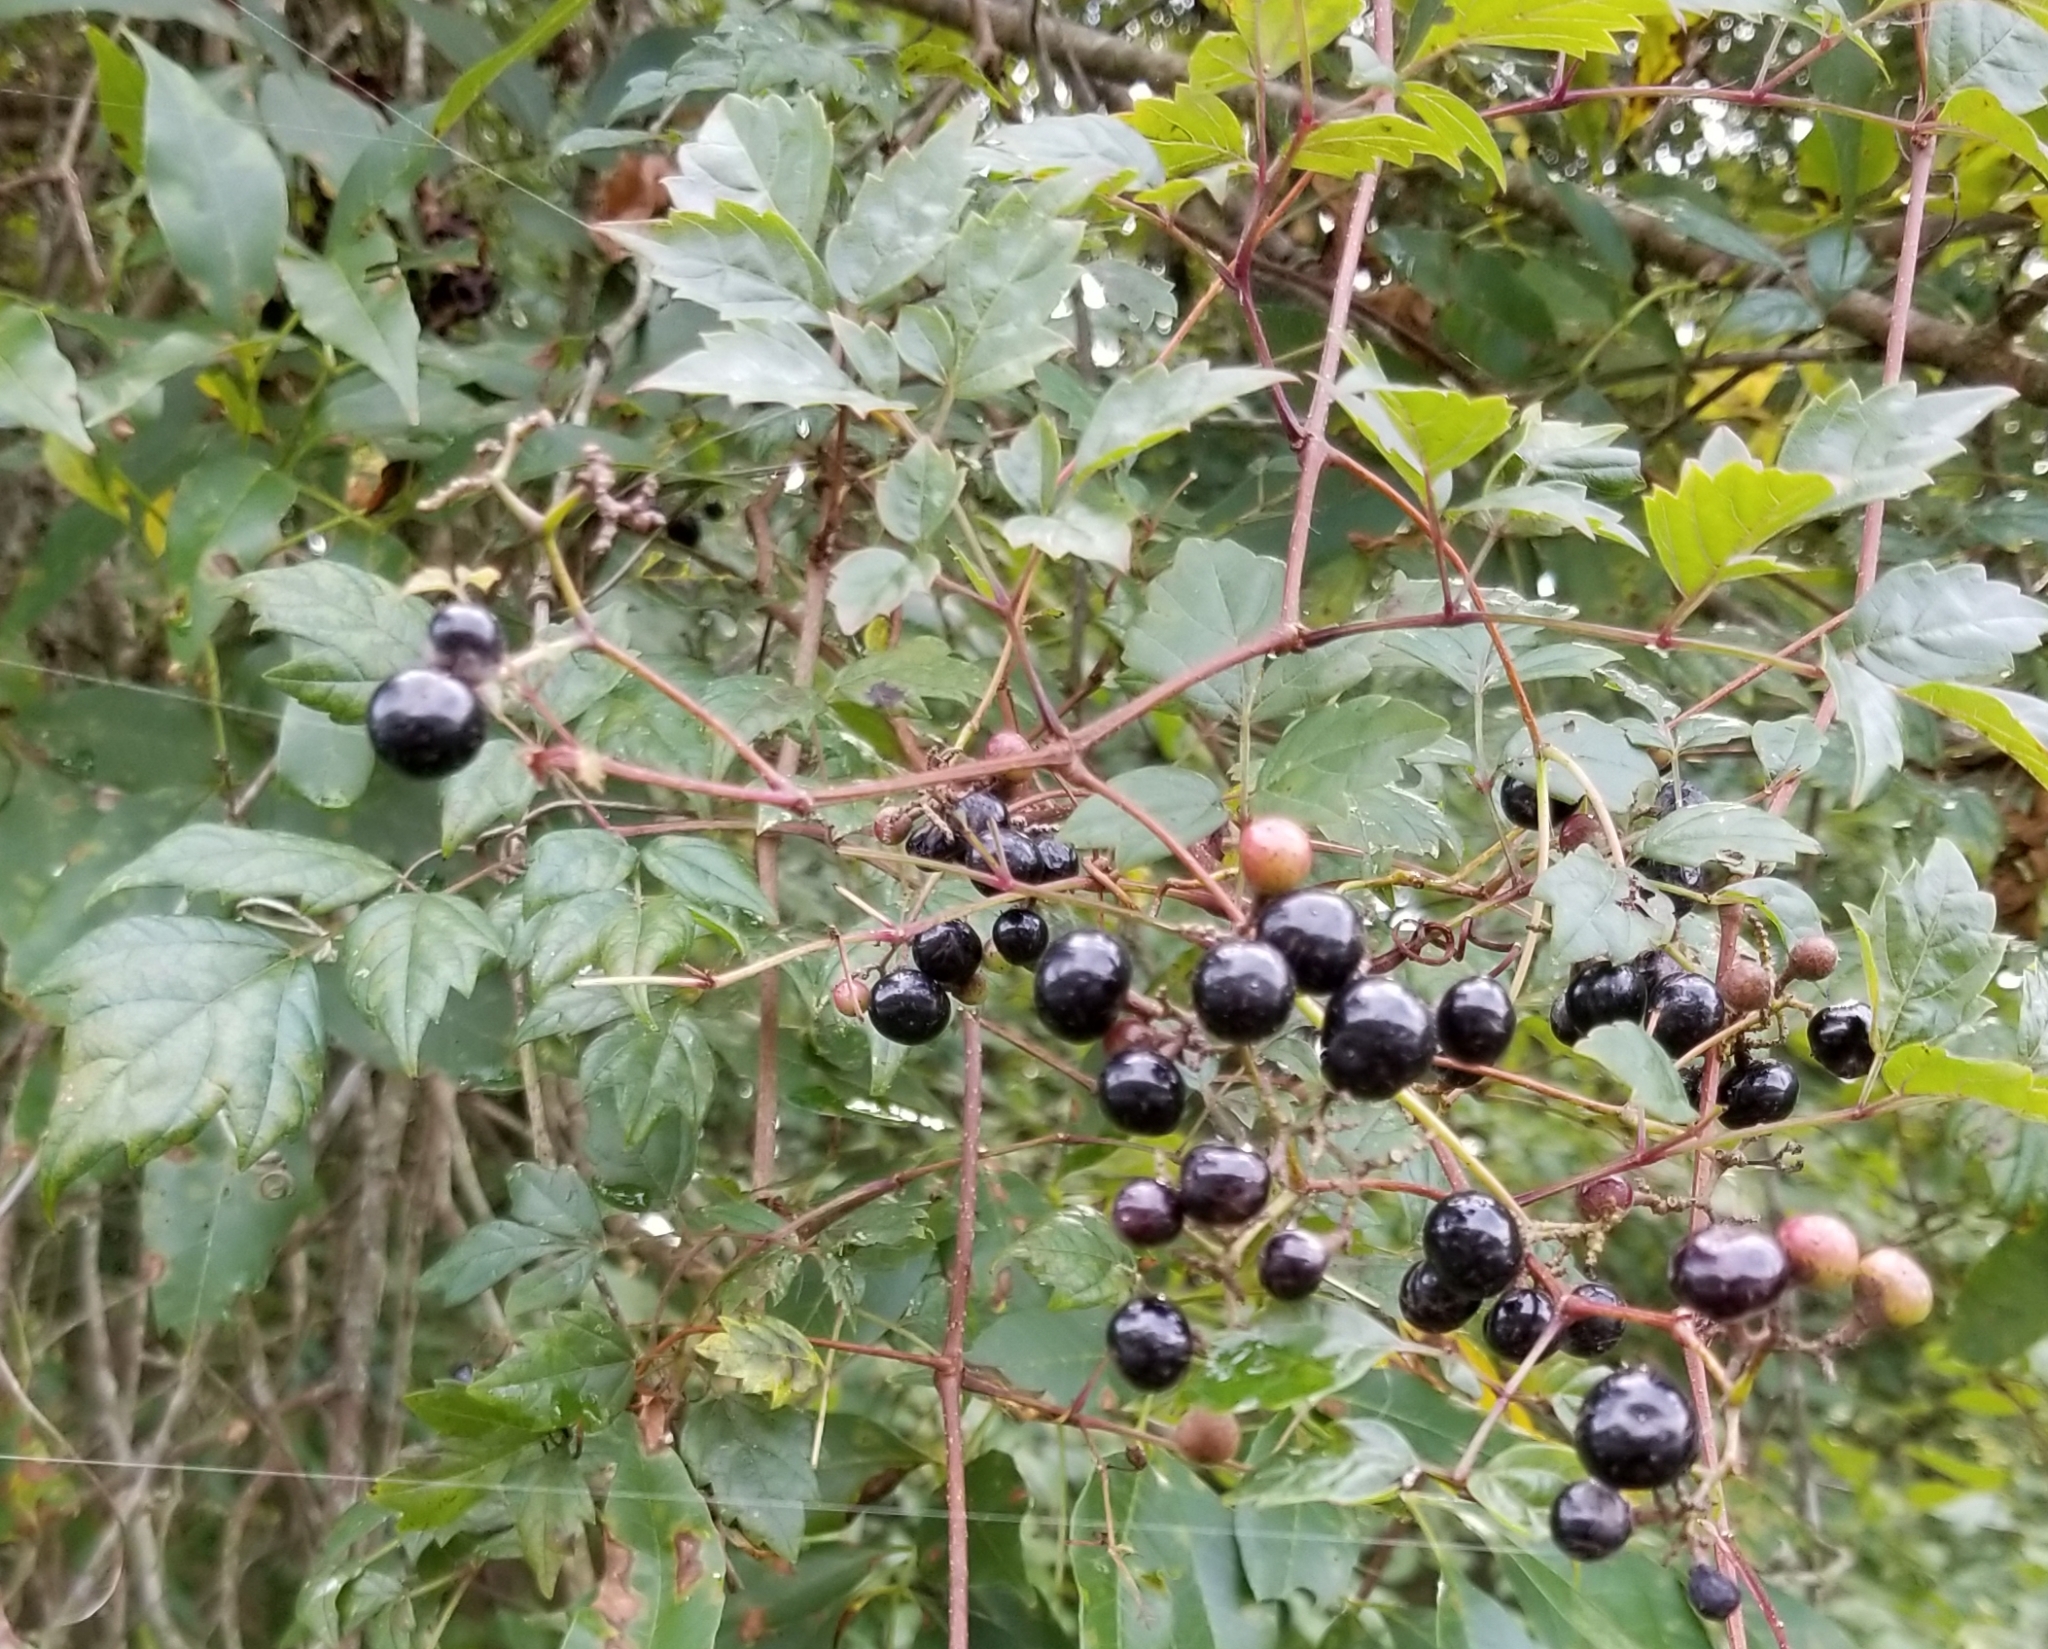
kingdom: Plantae
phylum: Tracheophyta
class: Magnoliopsida
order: Vitales
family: Vitaceae
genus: Nekemias
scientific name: Nekemias arborea
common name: Peppervine
